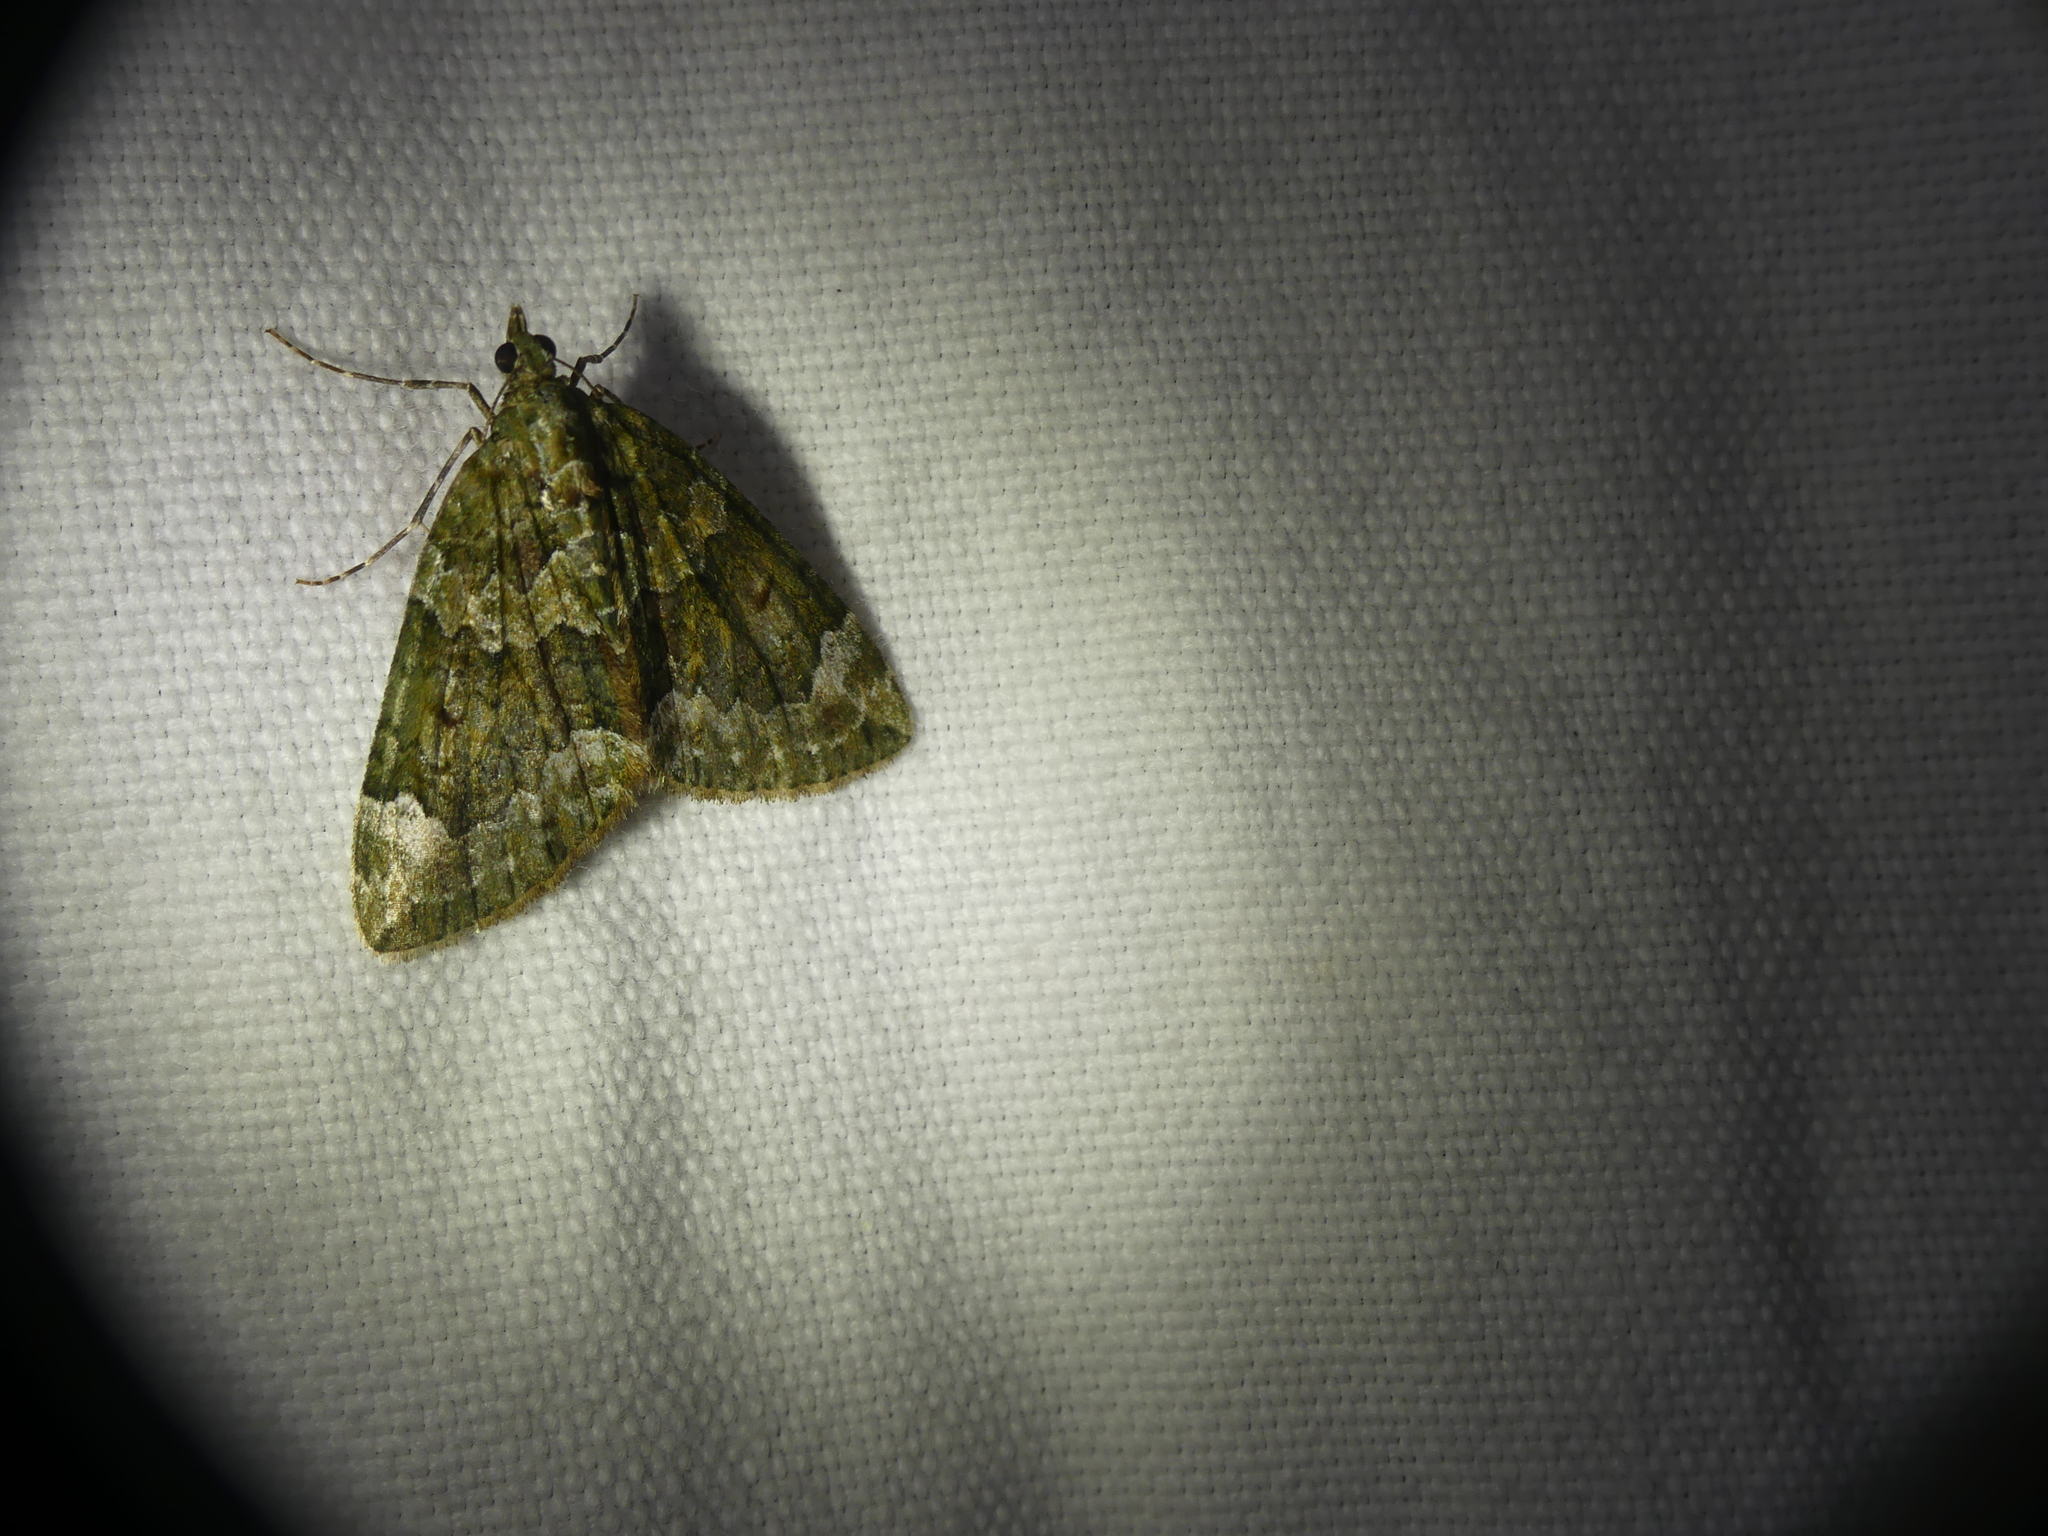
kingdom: Animalia
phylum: Arthropoda
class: Insecta
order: Lepidoptera
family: Geometridae
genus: Chloroclysta
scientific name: Chloroclysta siterata
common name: Red-green carpet
